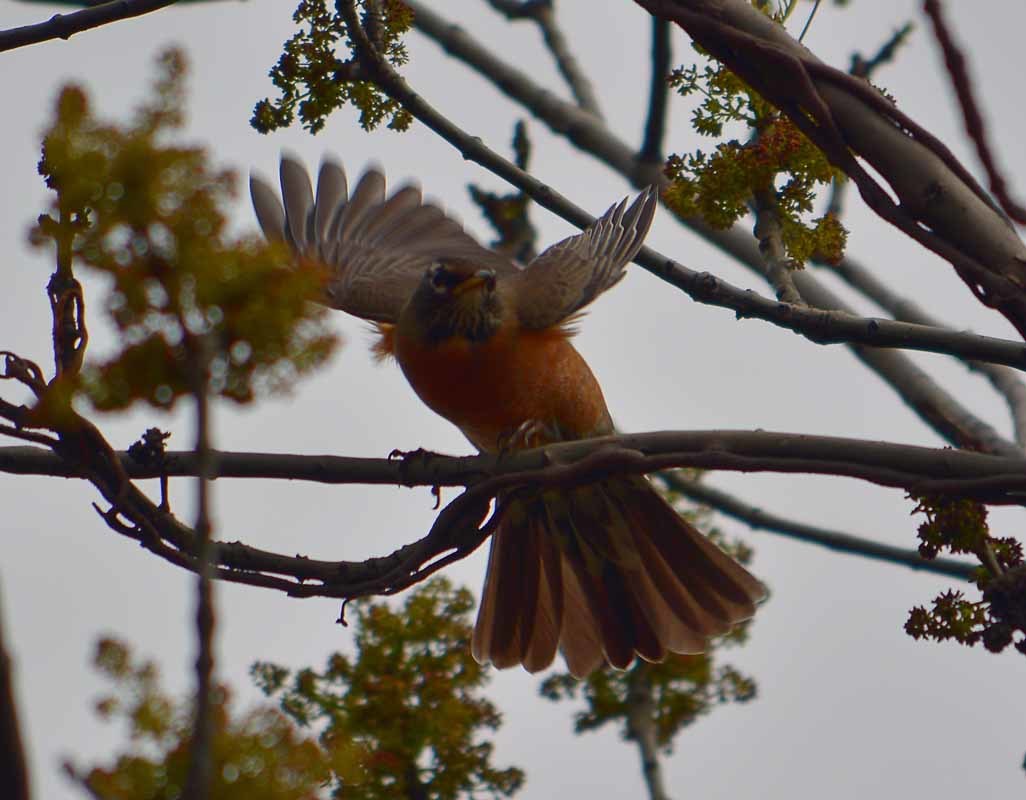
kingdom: Animalia
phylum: Chordata
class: Aves
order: Passeriformes
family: Turdidae
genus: Turdus
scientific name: Turdus migratorius
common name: American robin
